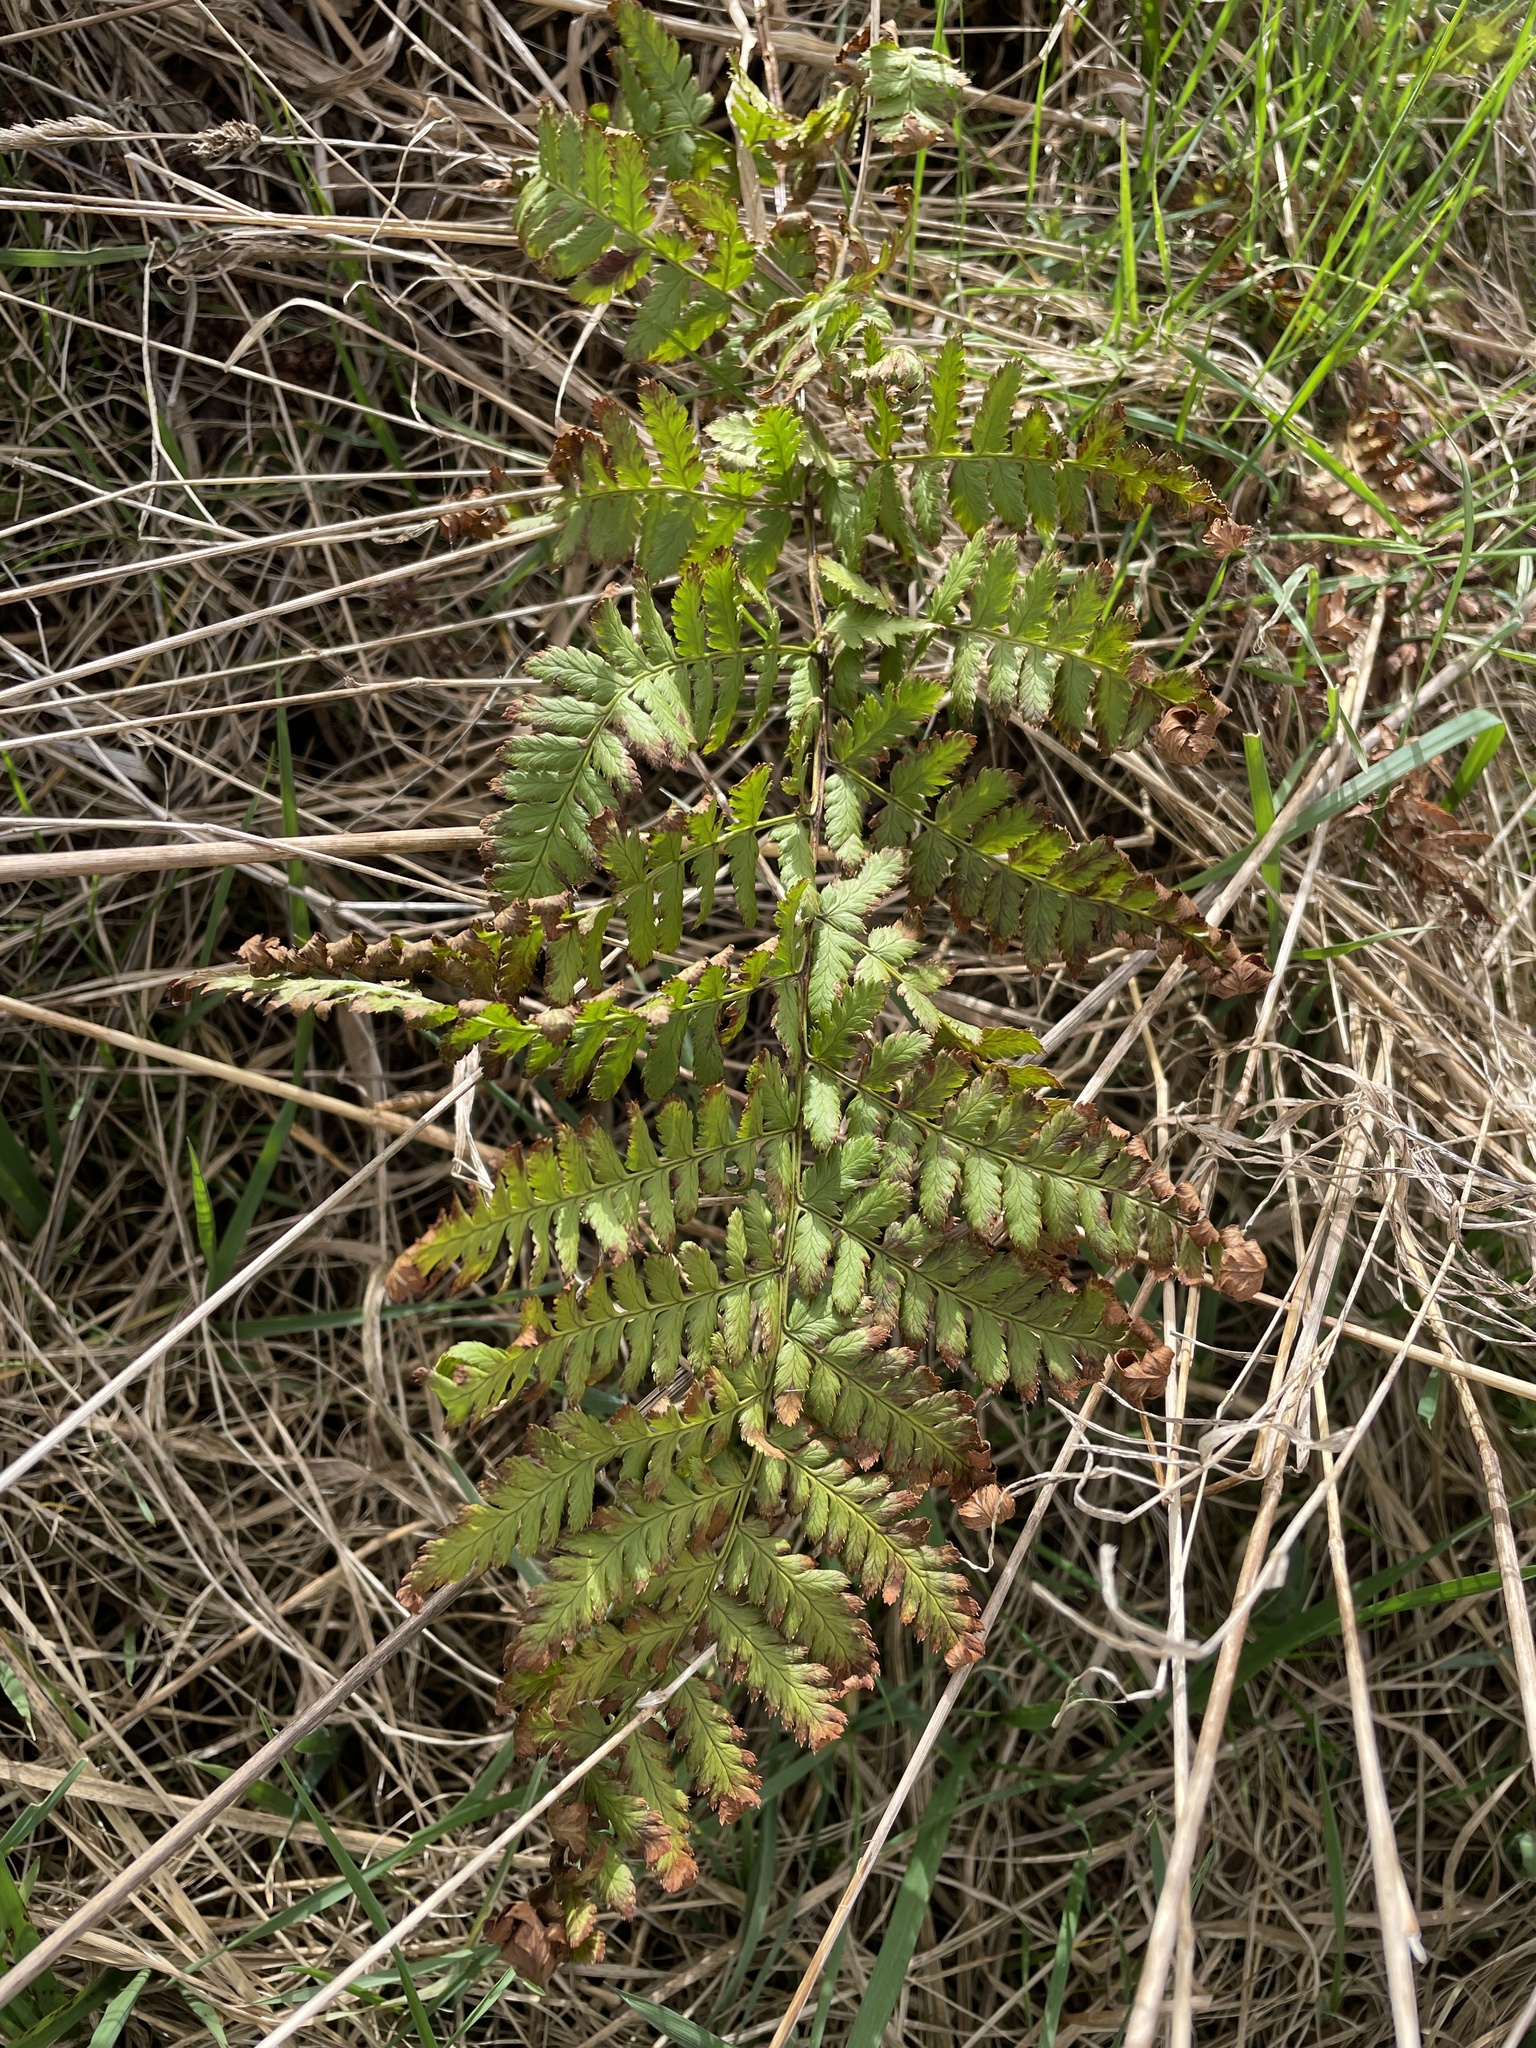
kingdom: Plantae
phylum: Tracheophyta
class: Polypodiopsida
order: Polypodiales
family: Dryopteridaceae
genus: Dryopteris
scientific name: Dryopteris carthusiana
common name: Narrow buckler-fern
